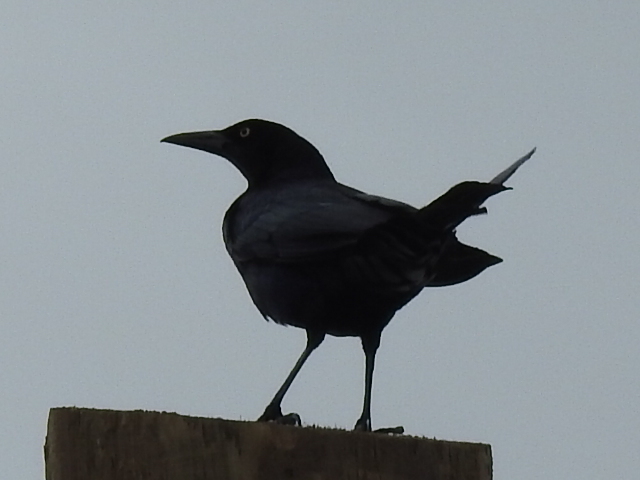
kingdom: Animalia
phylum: Chordata
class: Aves
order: Passeriformes
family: Icteridae
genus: Quiscalus
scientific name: Quiscalus mexicanus
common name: Great-tailed grackle
